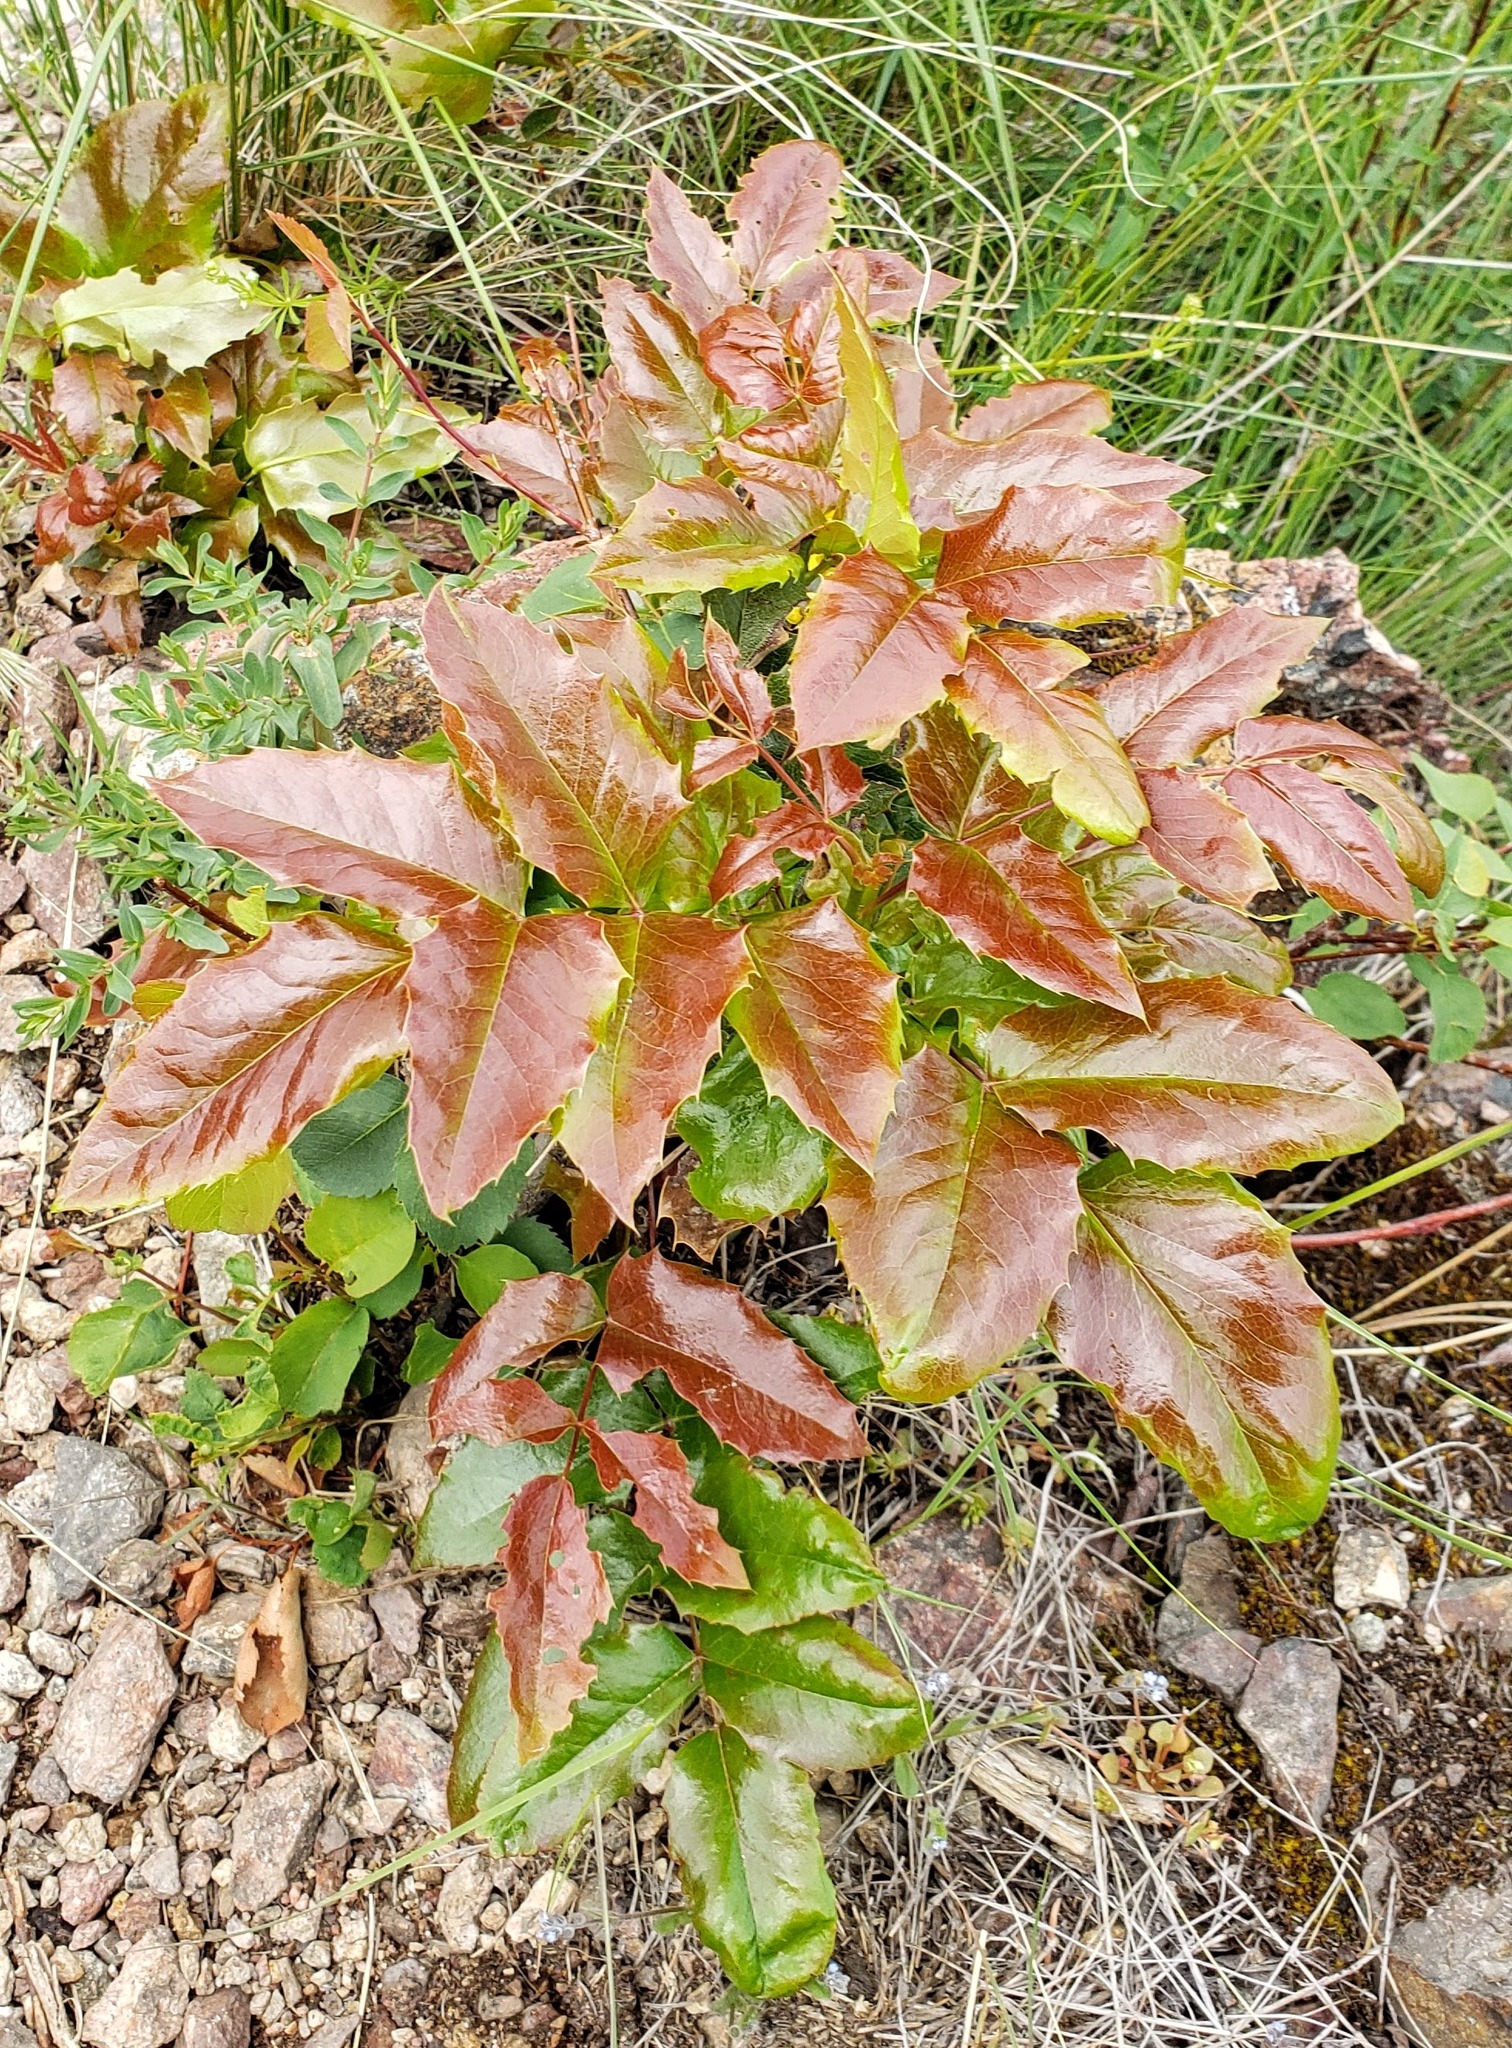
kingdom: Plantae
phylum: Tracheophyta
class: Magnoliopsida
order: Ranunculales
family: Berberidaceae
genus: Mahonia
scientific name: Mahonia aquifolium
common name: Oregon-grape
